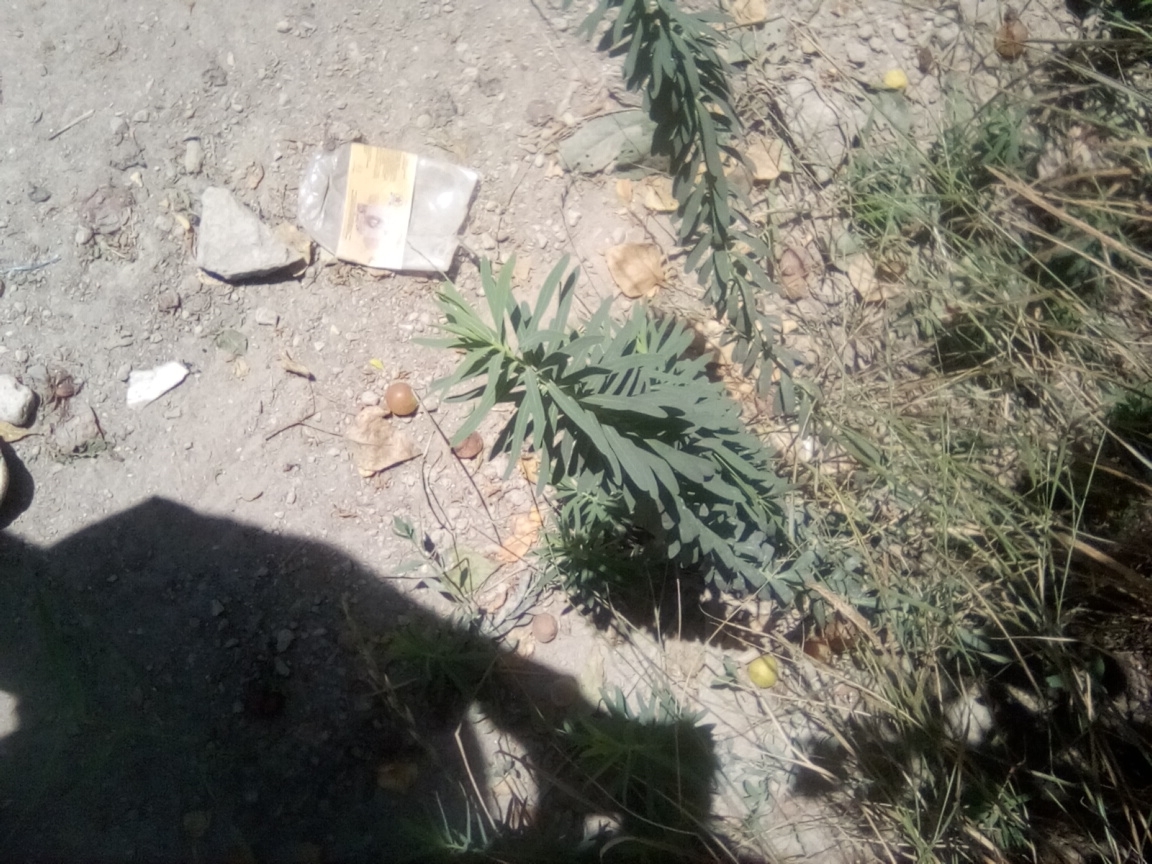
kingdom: Plantae
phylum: Tracheophyta
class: Magnoliopsida
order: Malpighiales
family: Euphorbiaceae
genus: Euphorbia
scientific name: Euphorbia virgata
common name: Leafy spurge
